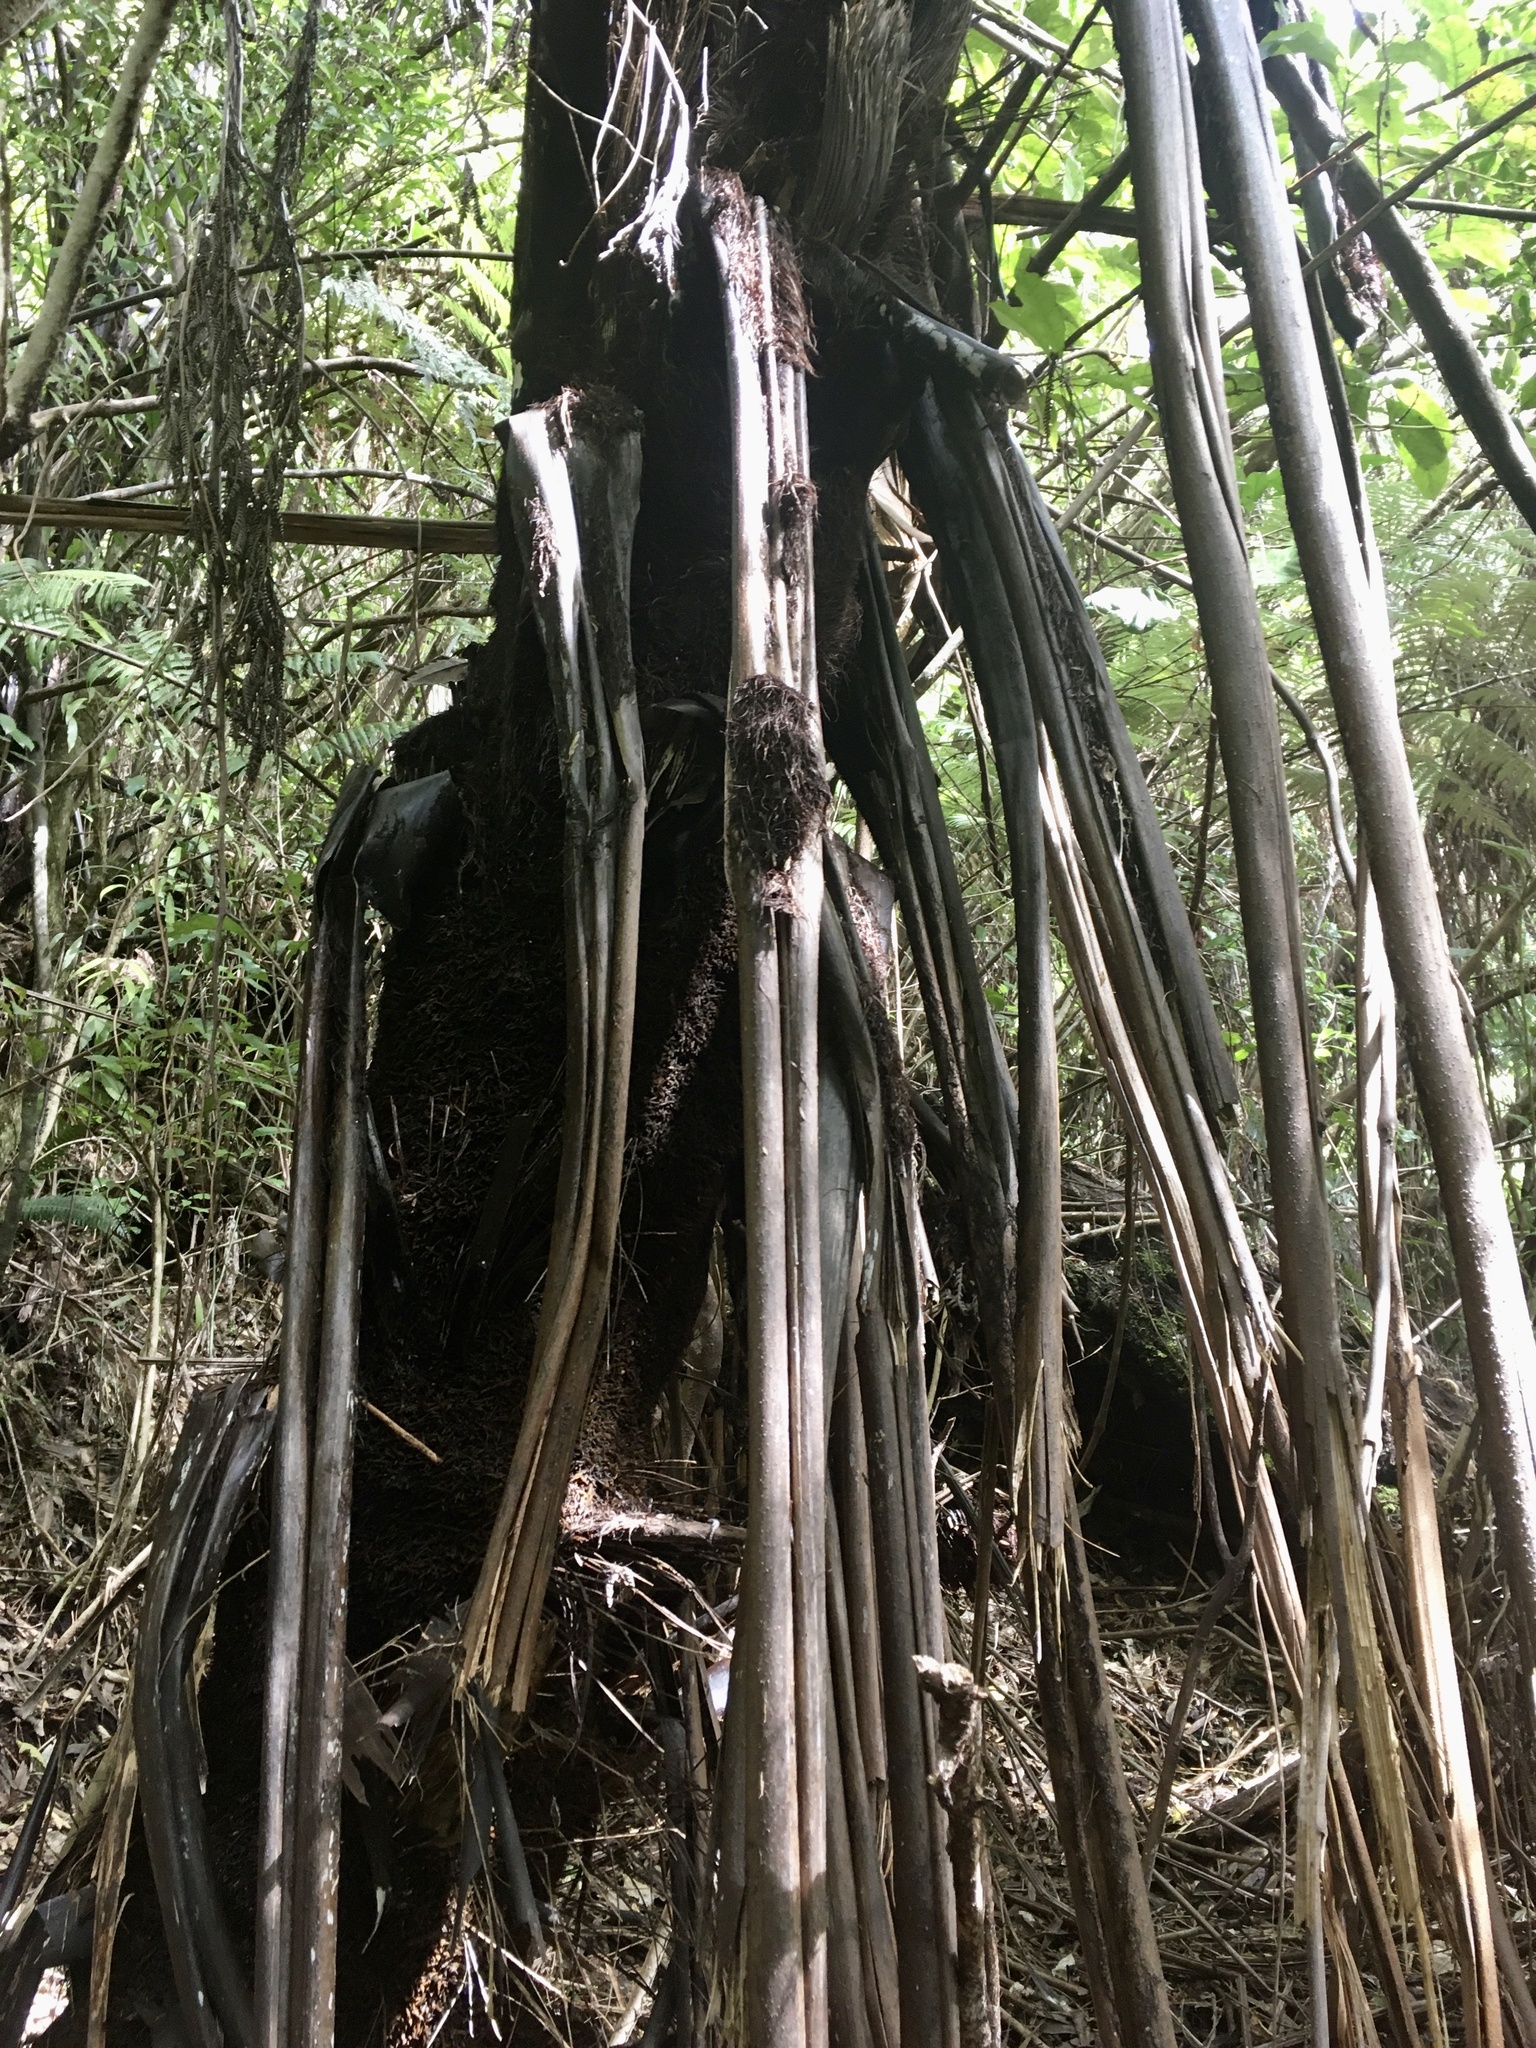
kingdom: Plantae
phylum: Tracheophyta
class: Polypodiopsida
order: Cyatheales
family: Cyatheaceae
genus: Sphaeropteris
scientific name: Sphaeropteris medullaris
